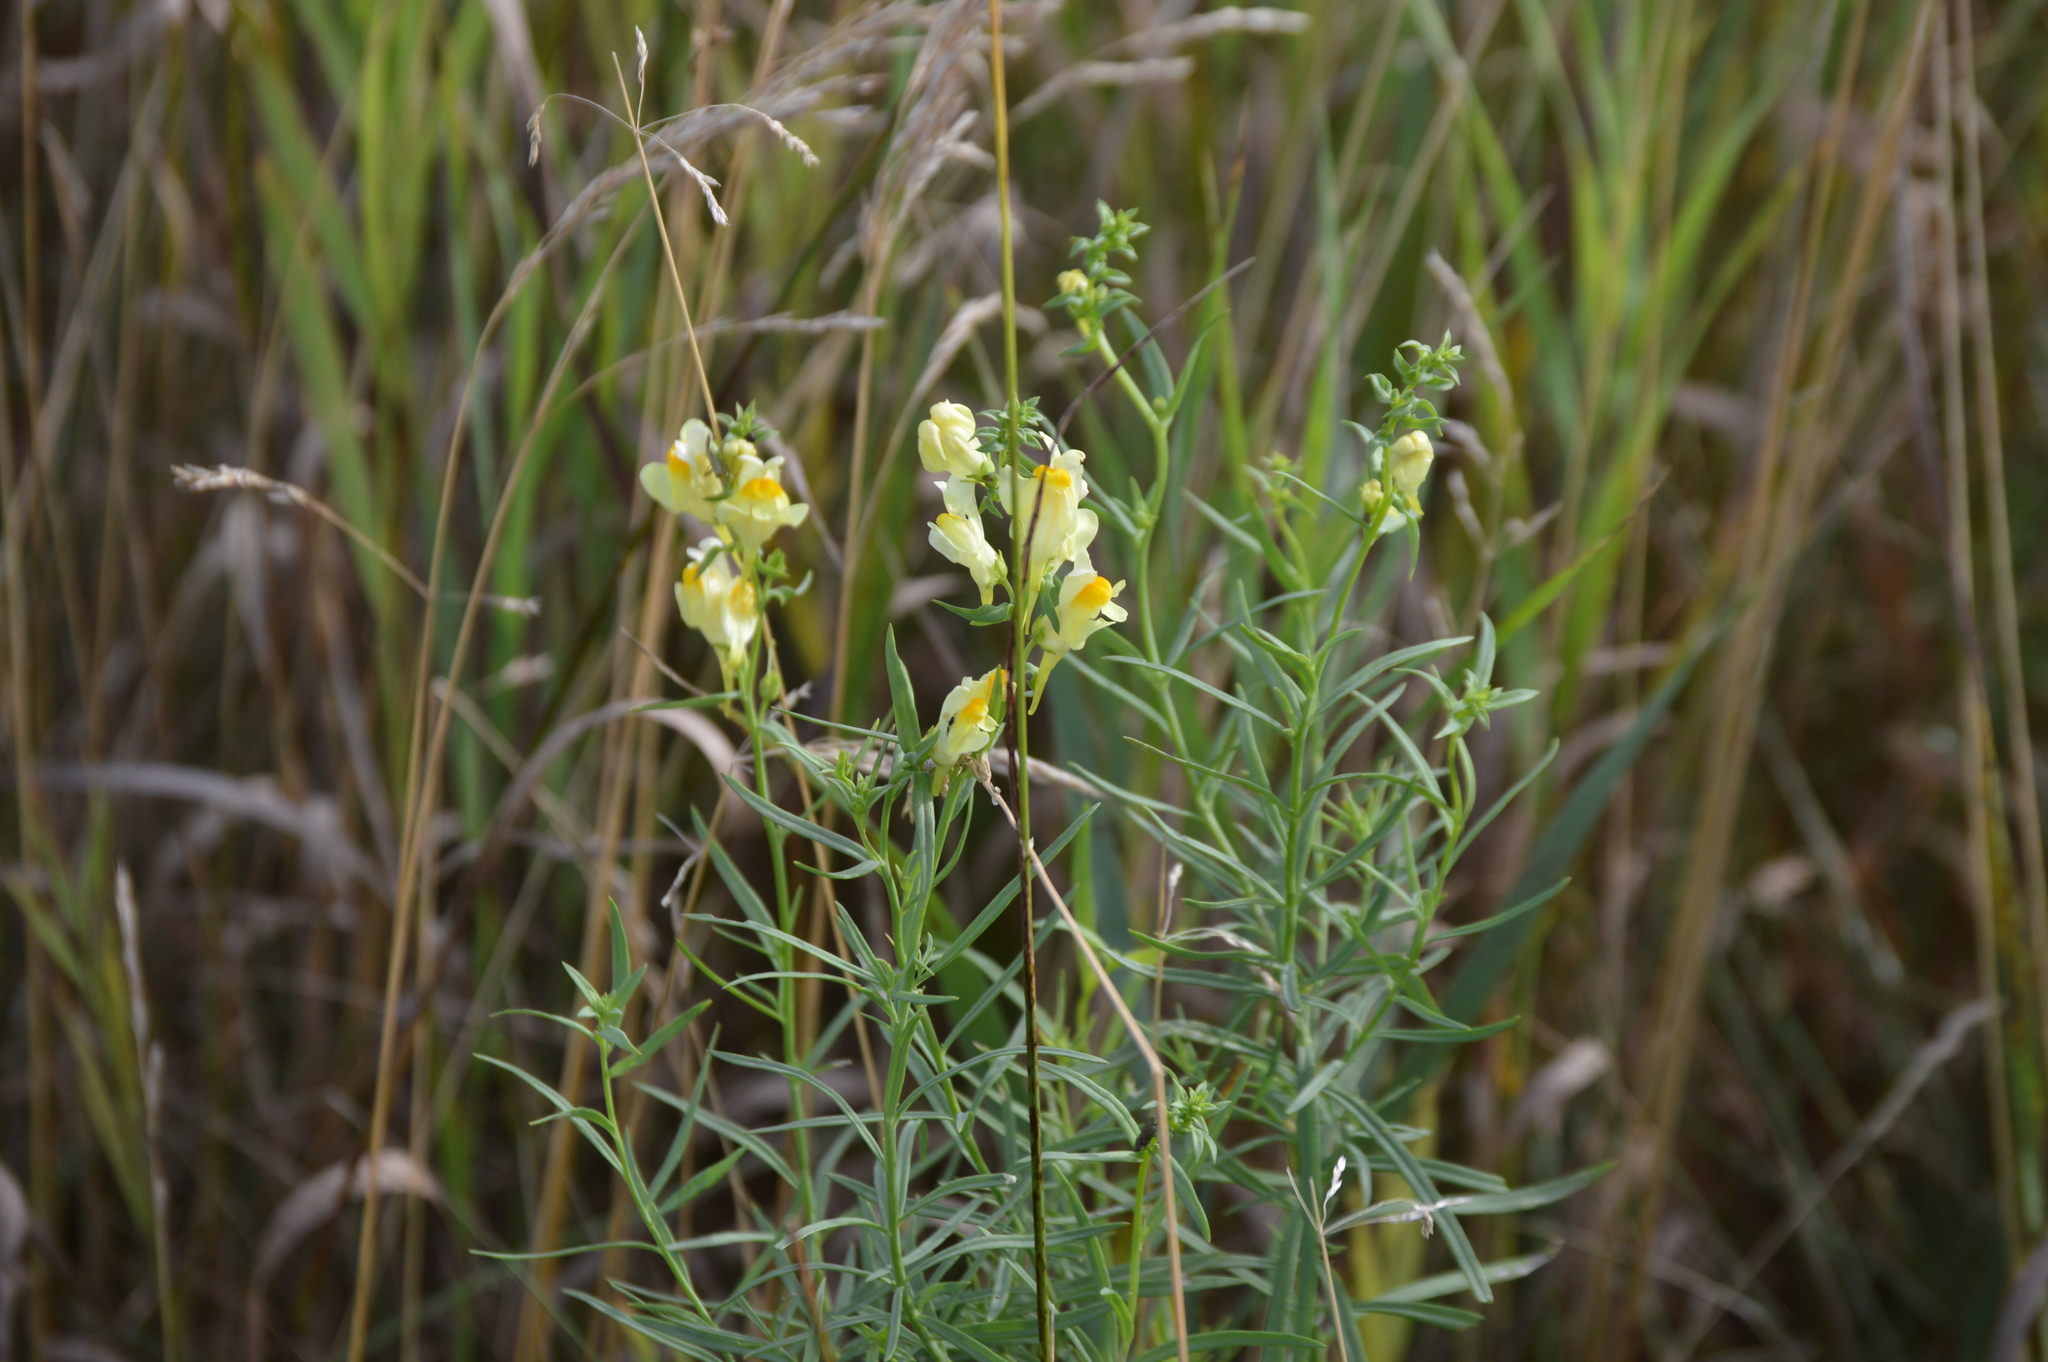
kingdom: Plantae
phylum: Tracheophyta
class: Magnoliopsida
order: Lamiales
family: Plantaginaceae
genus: Linaria
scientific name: Linaria vulgaris
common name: Butter and eggs
